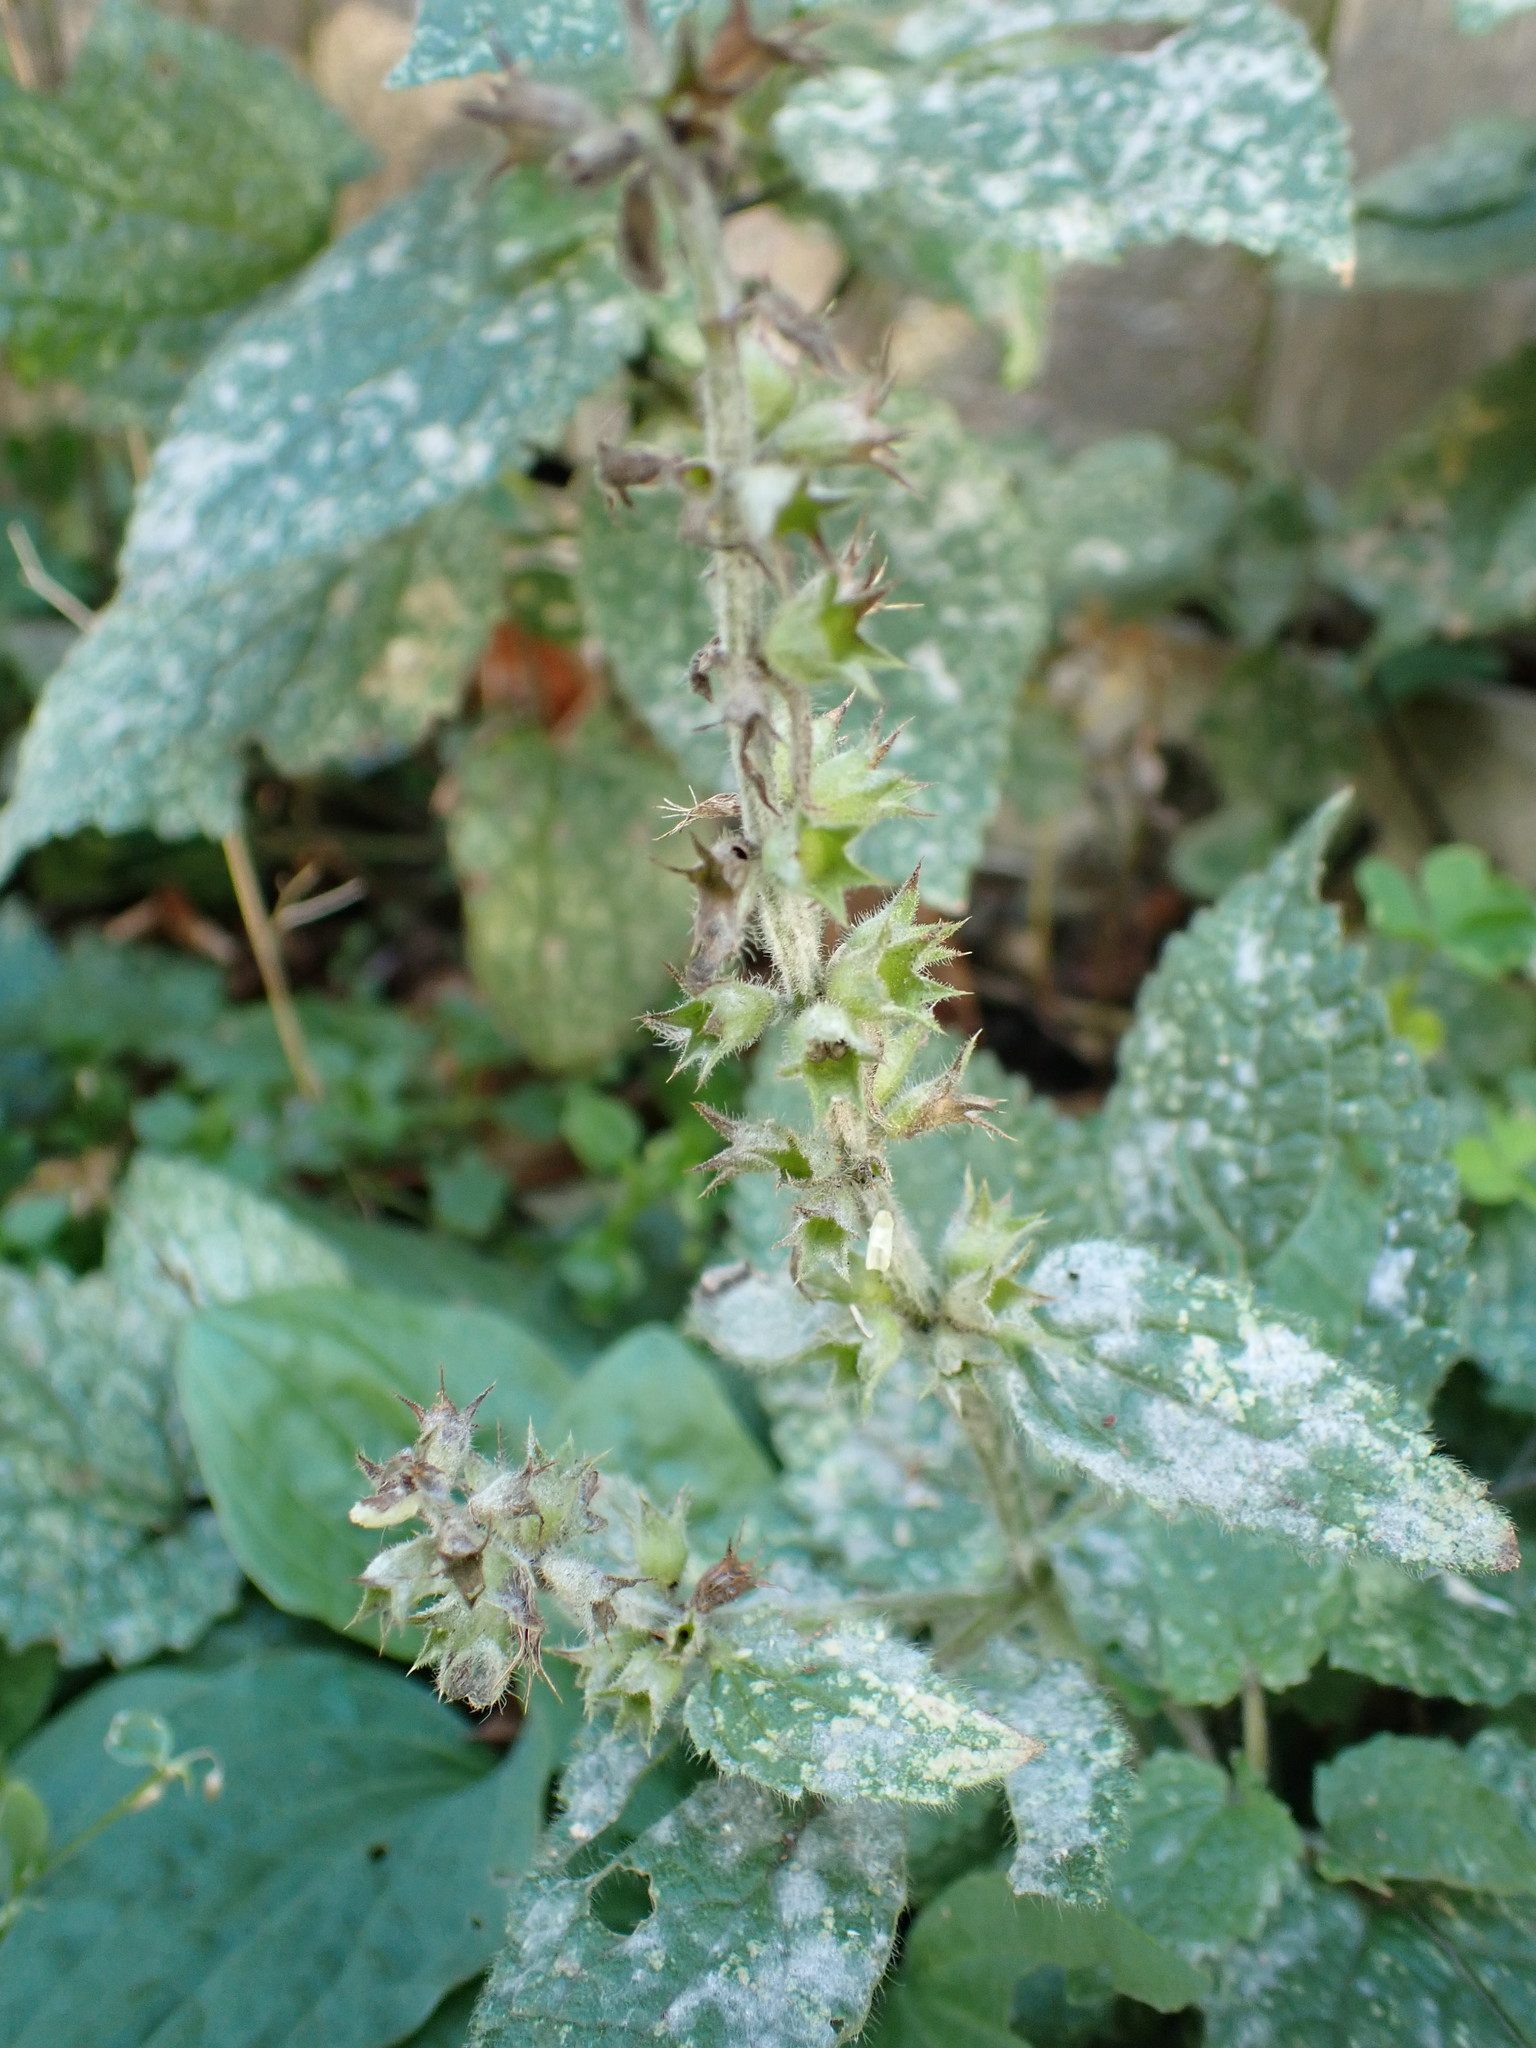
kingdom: Plantae
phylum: Tracheophyta
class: Magnoliopsida
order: Lamiales
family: Lamiaceae
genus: Stachys
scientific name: Stachys sylvatica
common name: Hedge woundwort
